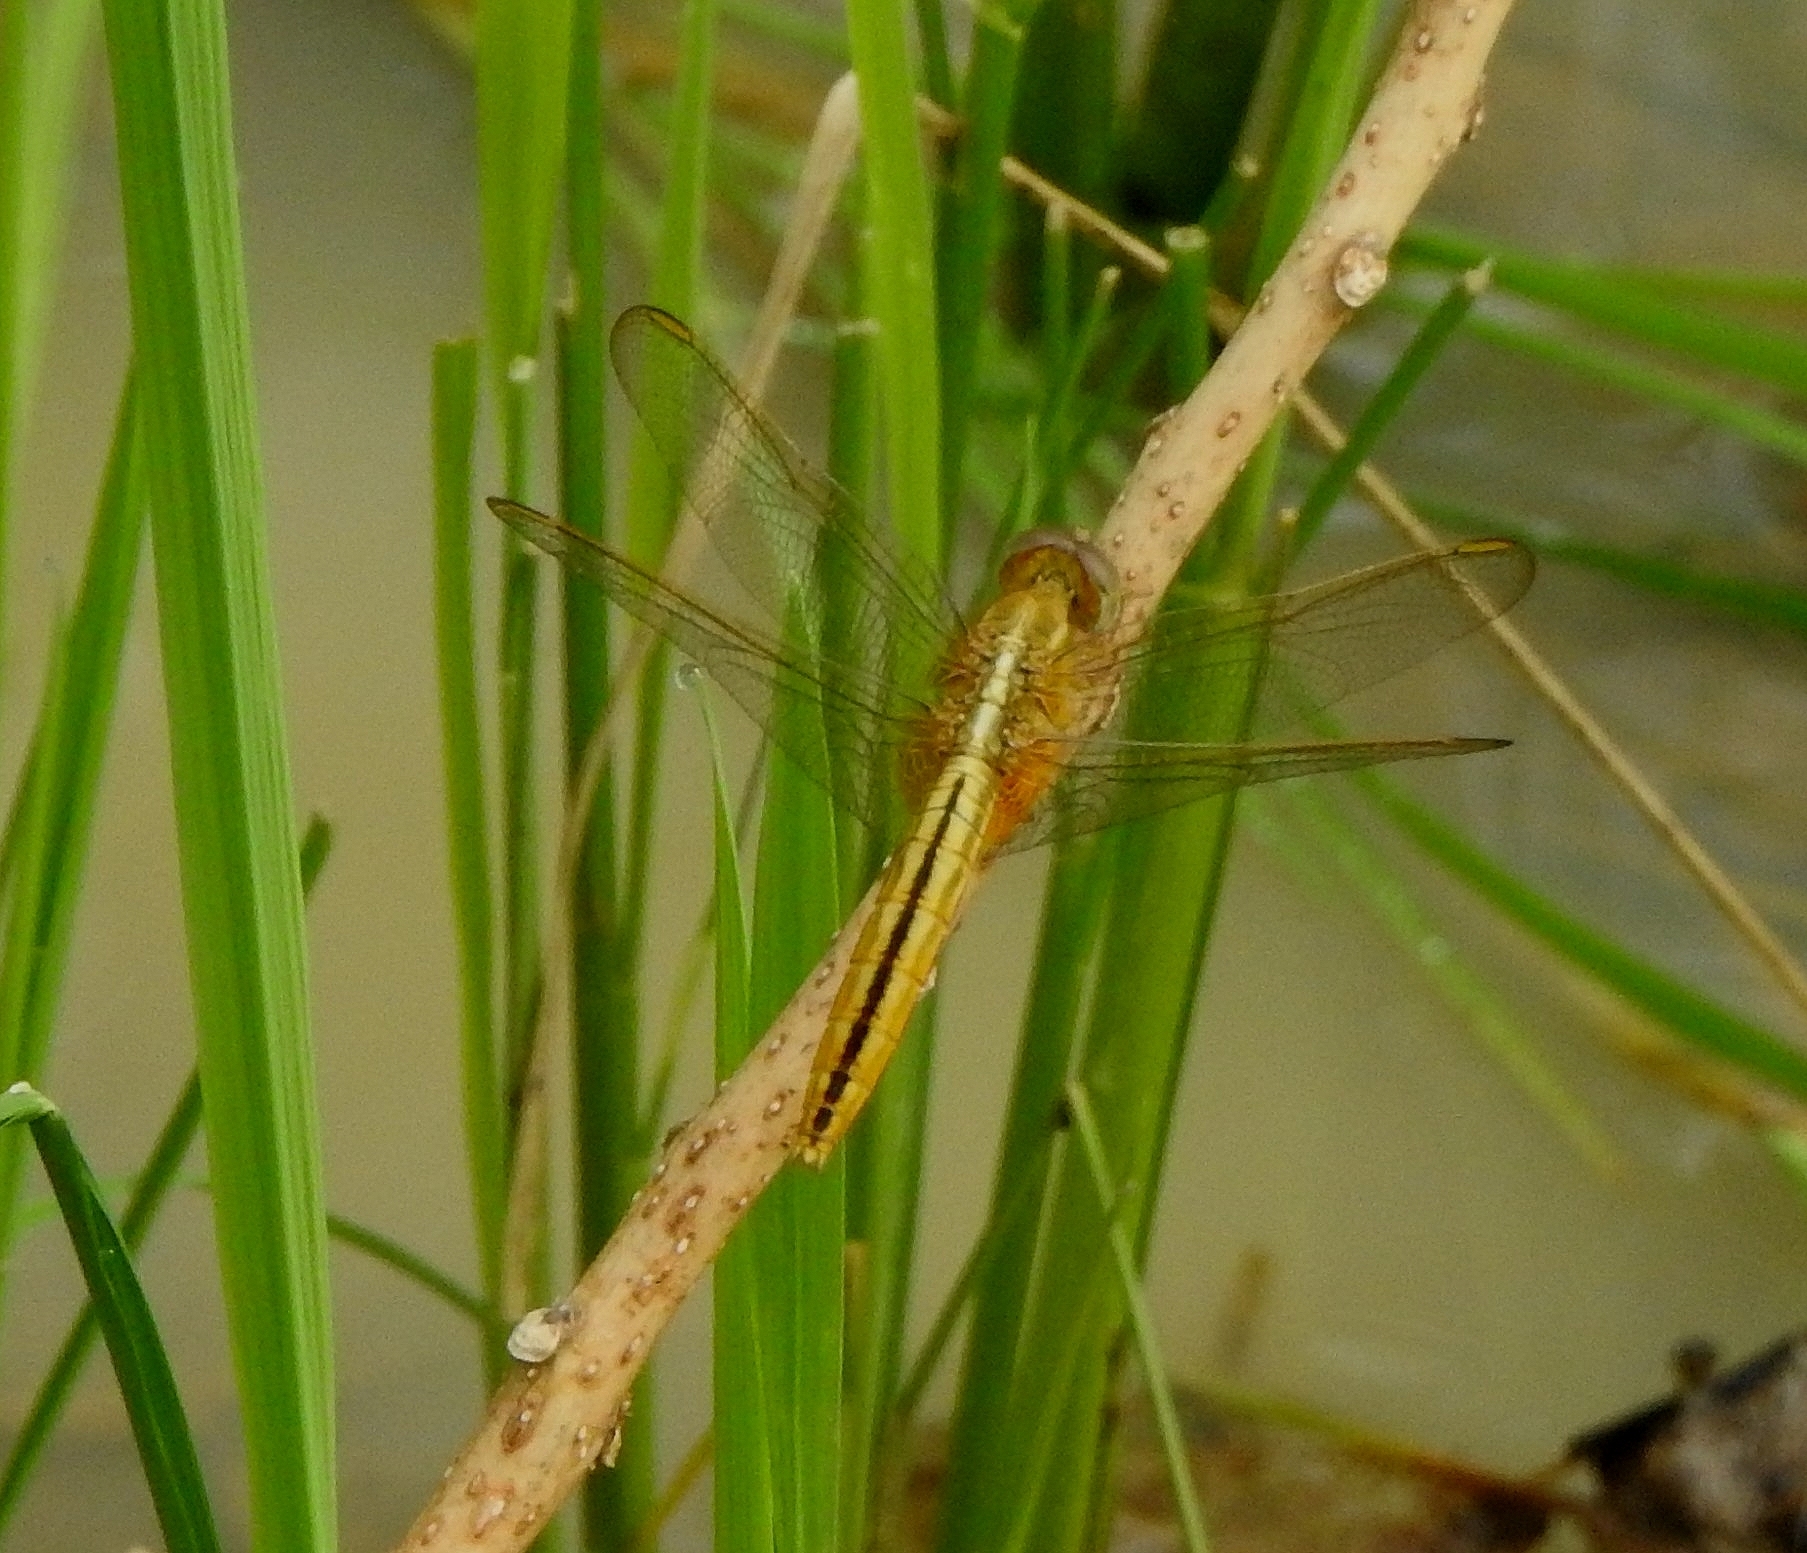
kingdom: Animalia
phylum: Arthropoda
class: Insecta
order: Odonata
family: Libellulidae
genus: Crocothemis
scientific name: Crocothemis servilia
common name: Scarlet skimmer
